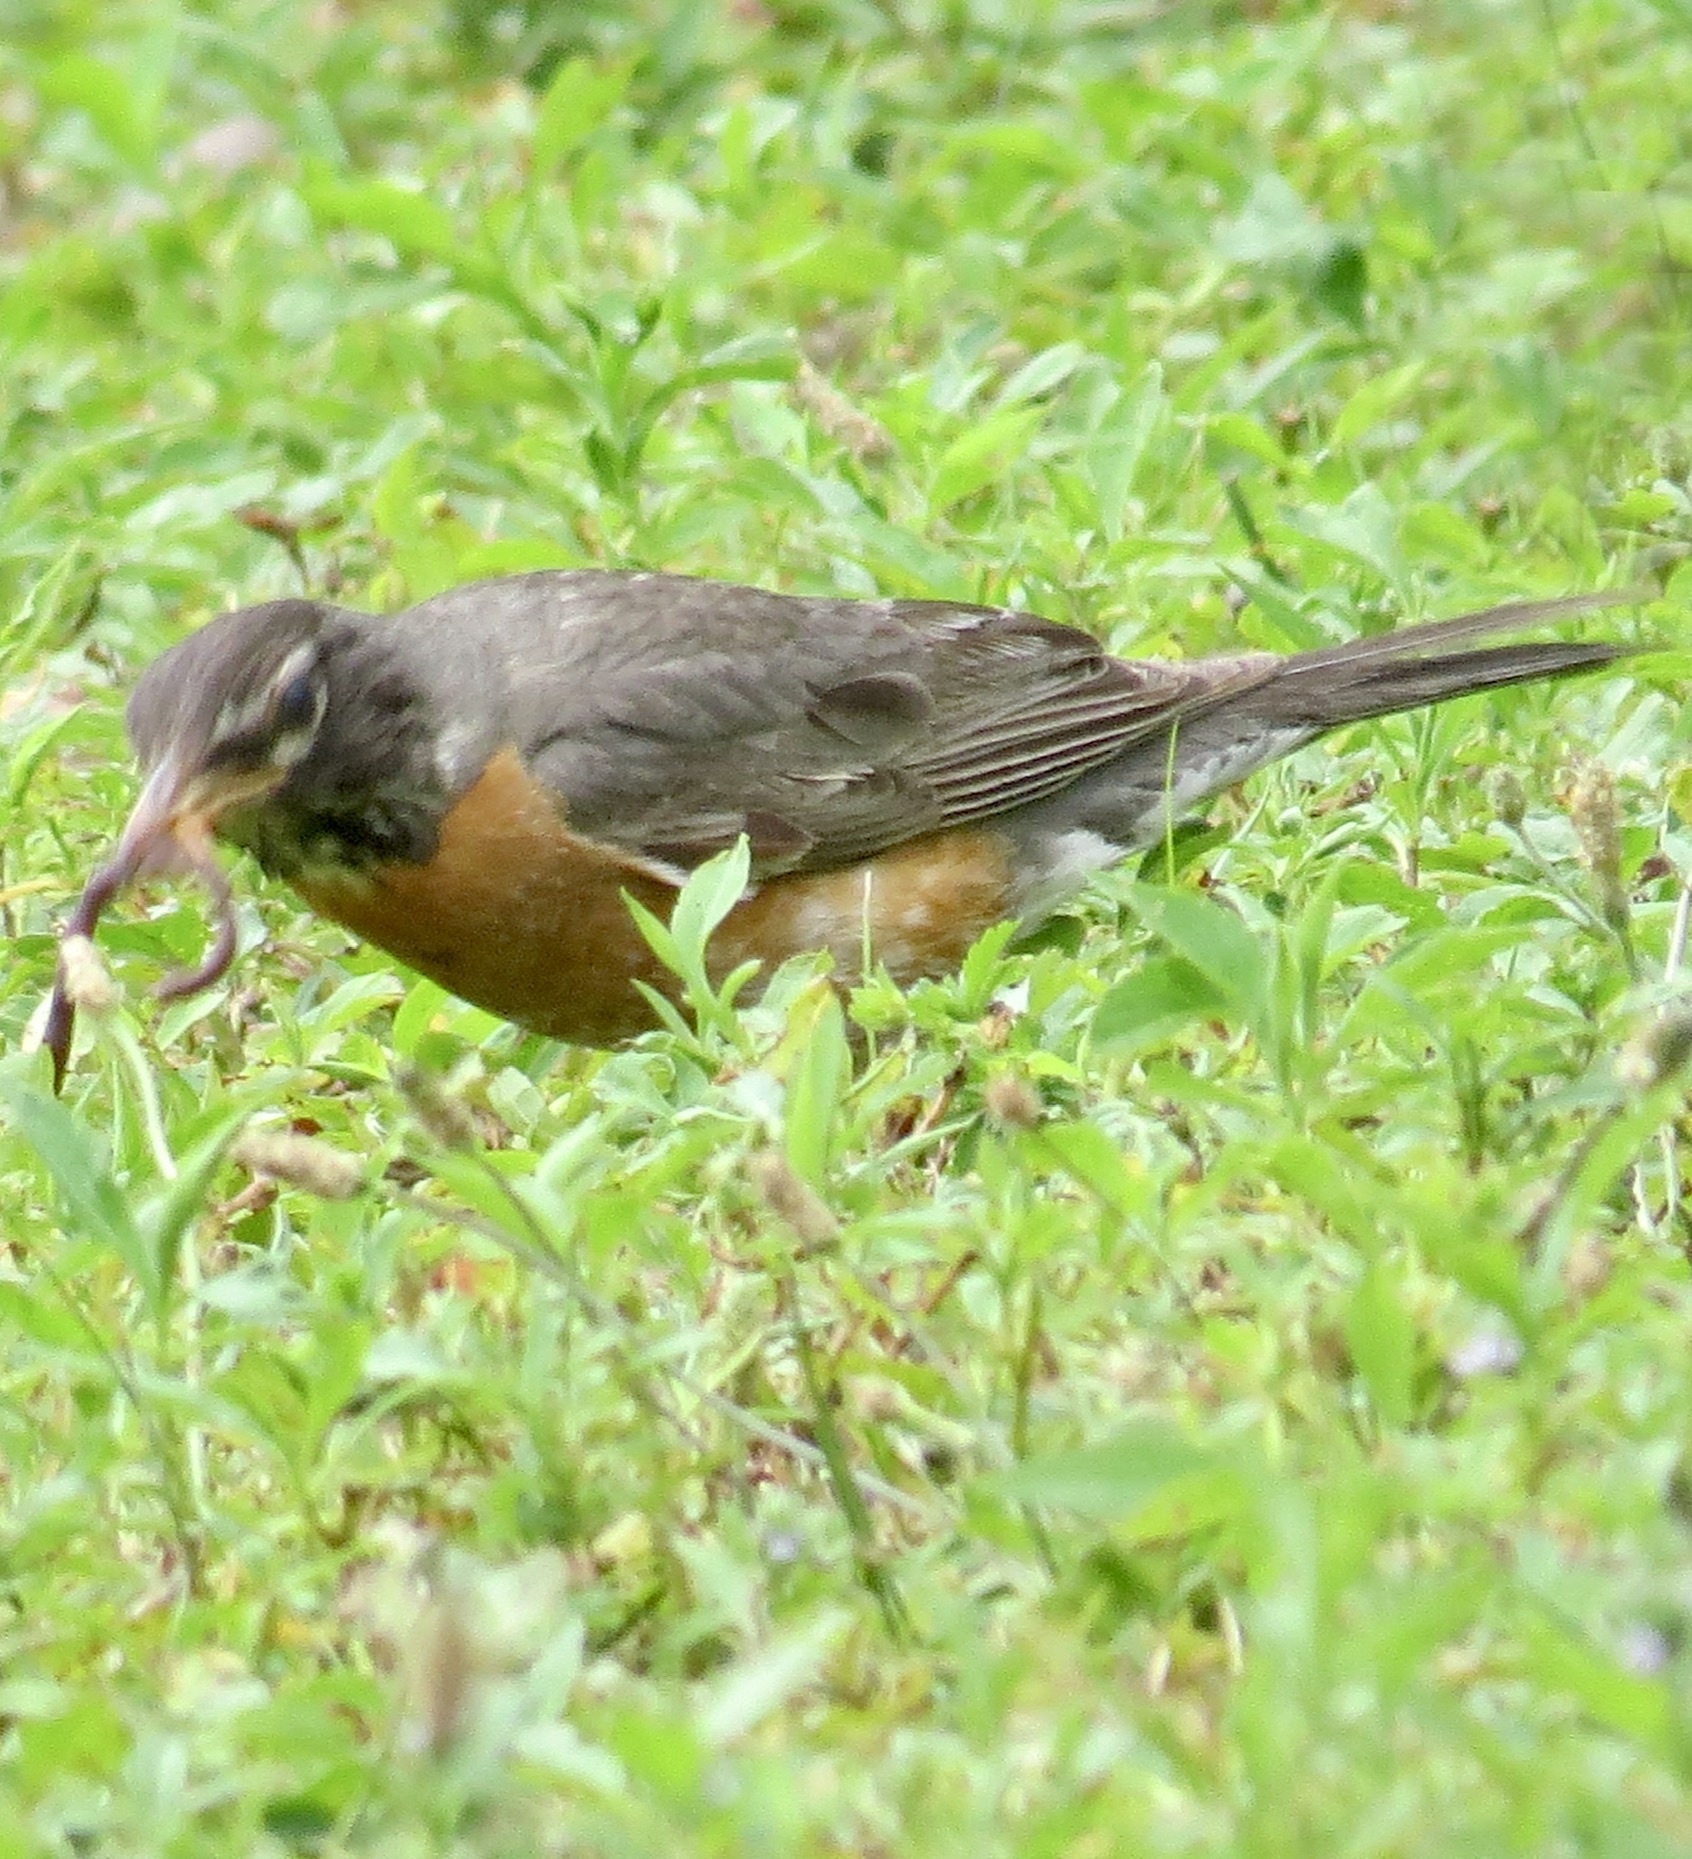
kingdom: Animalia
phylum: Chordata
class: Aves
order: Passeriformes
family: Turdidae
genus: Turdus
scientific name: Turdus migratorius
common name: American robin
